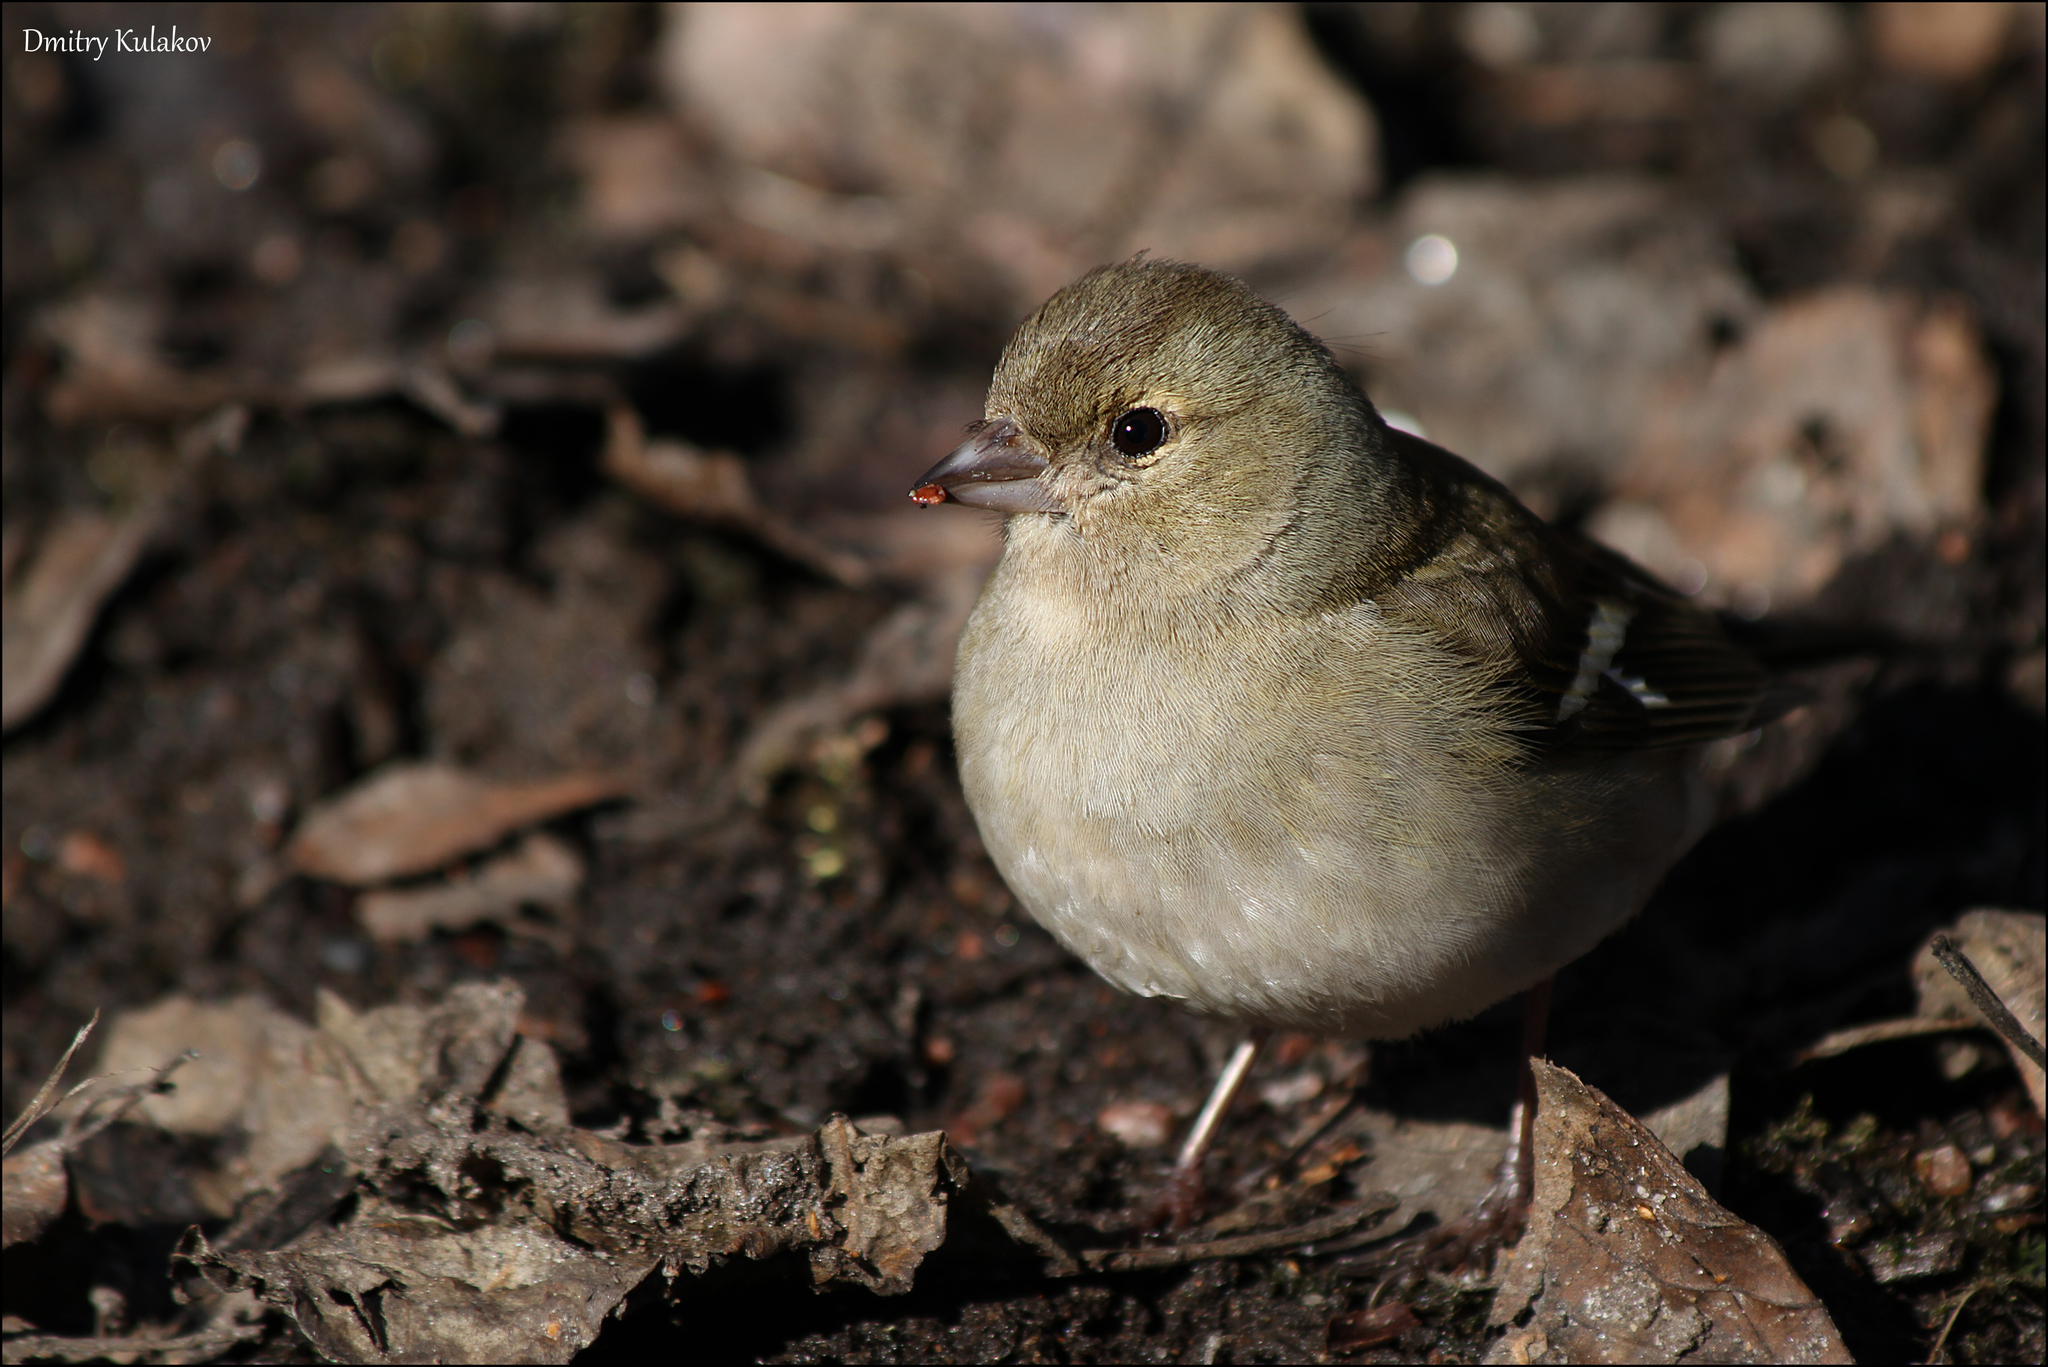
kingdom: Animalia
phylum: Chordata
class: Aves
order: Passeriformes
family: Fringillidae
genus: Fringilla
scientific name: Fringilla coelebs
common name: Common chaffinch
